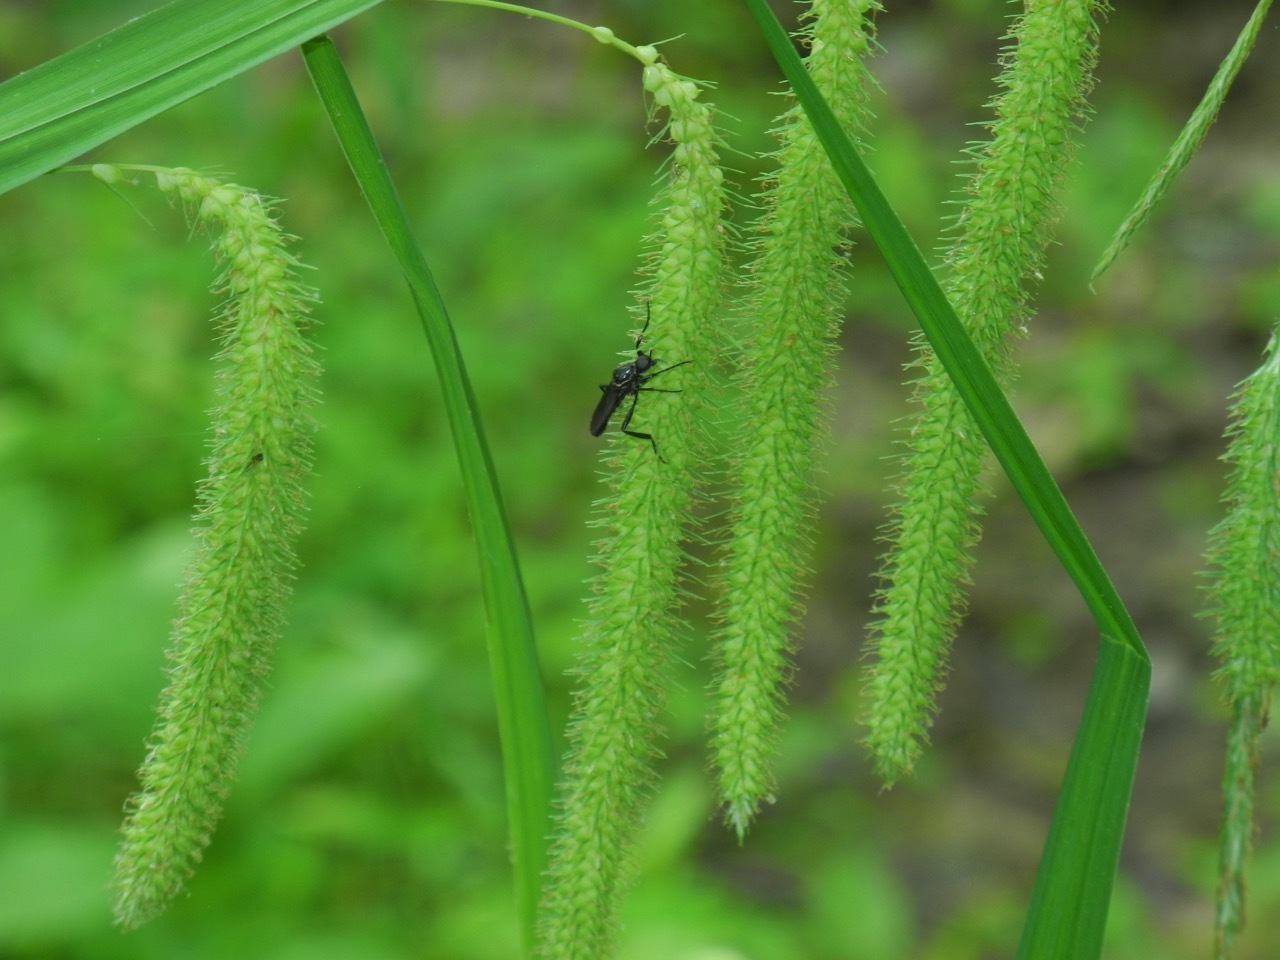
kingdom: Animalia
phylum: Arthropoda
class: Insecta
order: Diptera
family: Bibionidae
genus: Bibio
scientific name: Bibio superfluus
